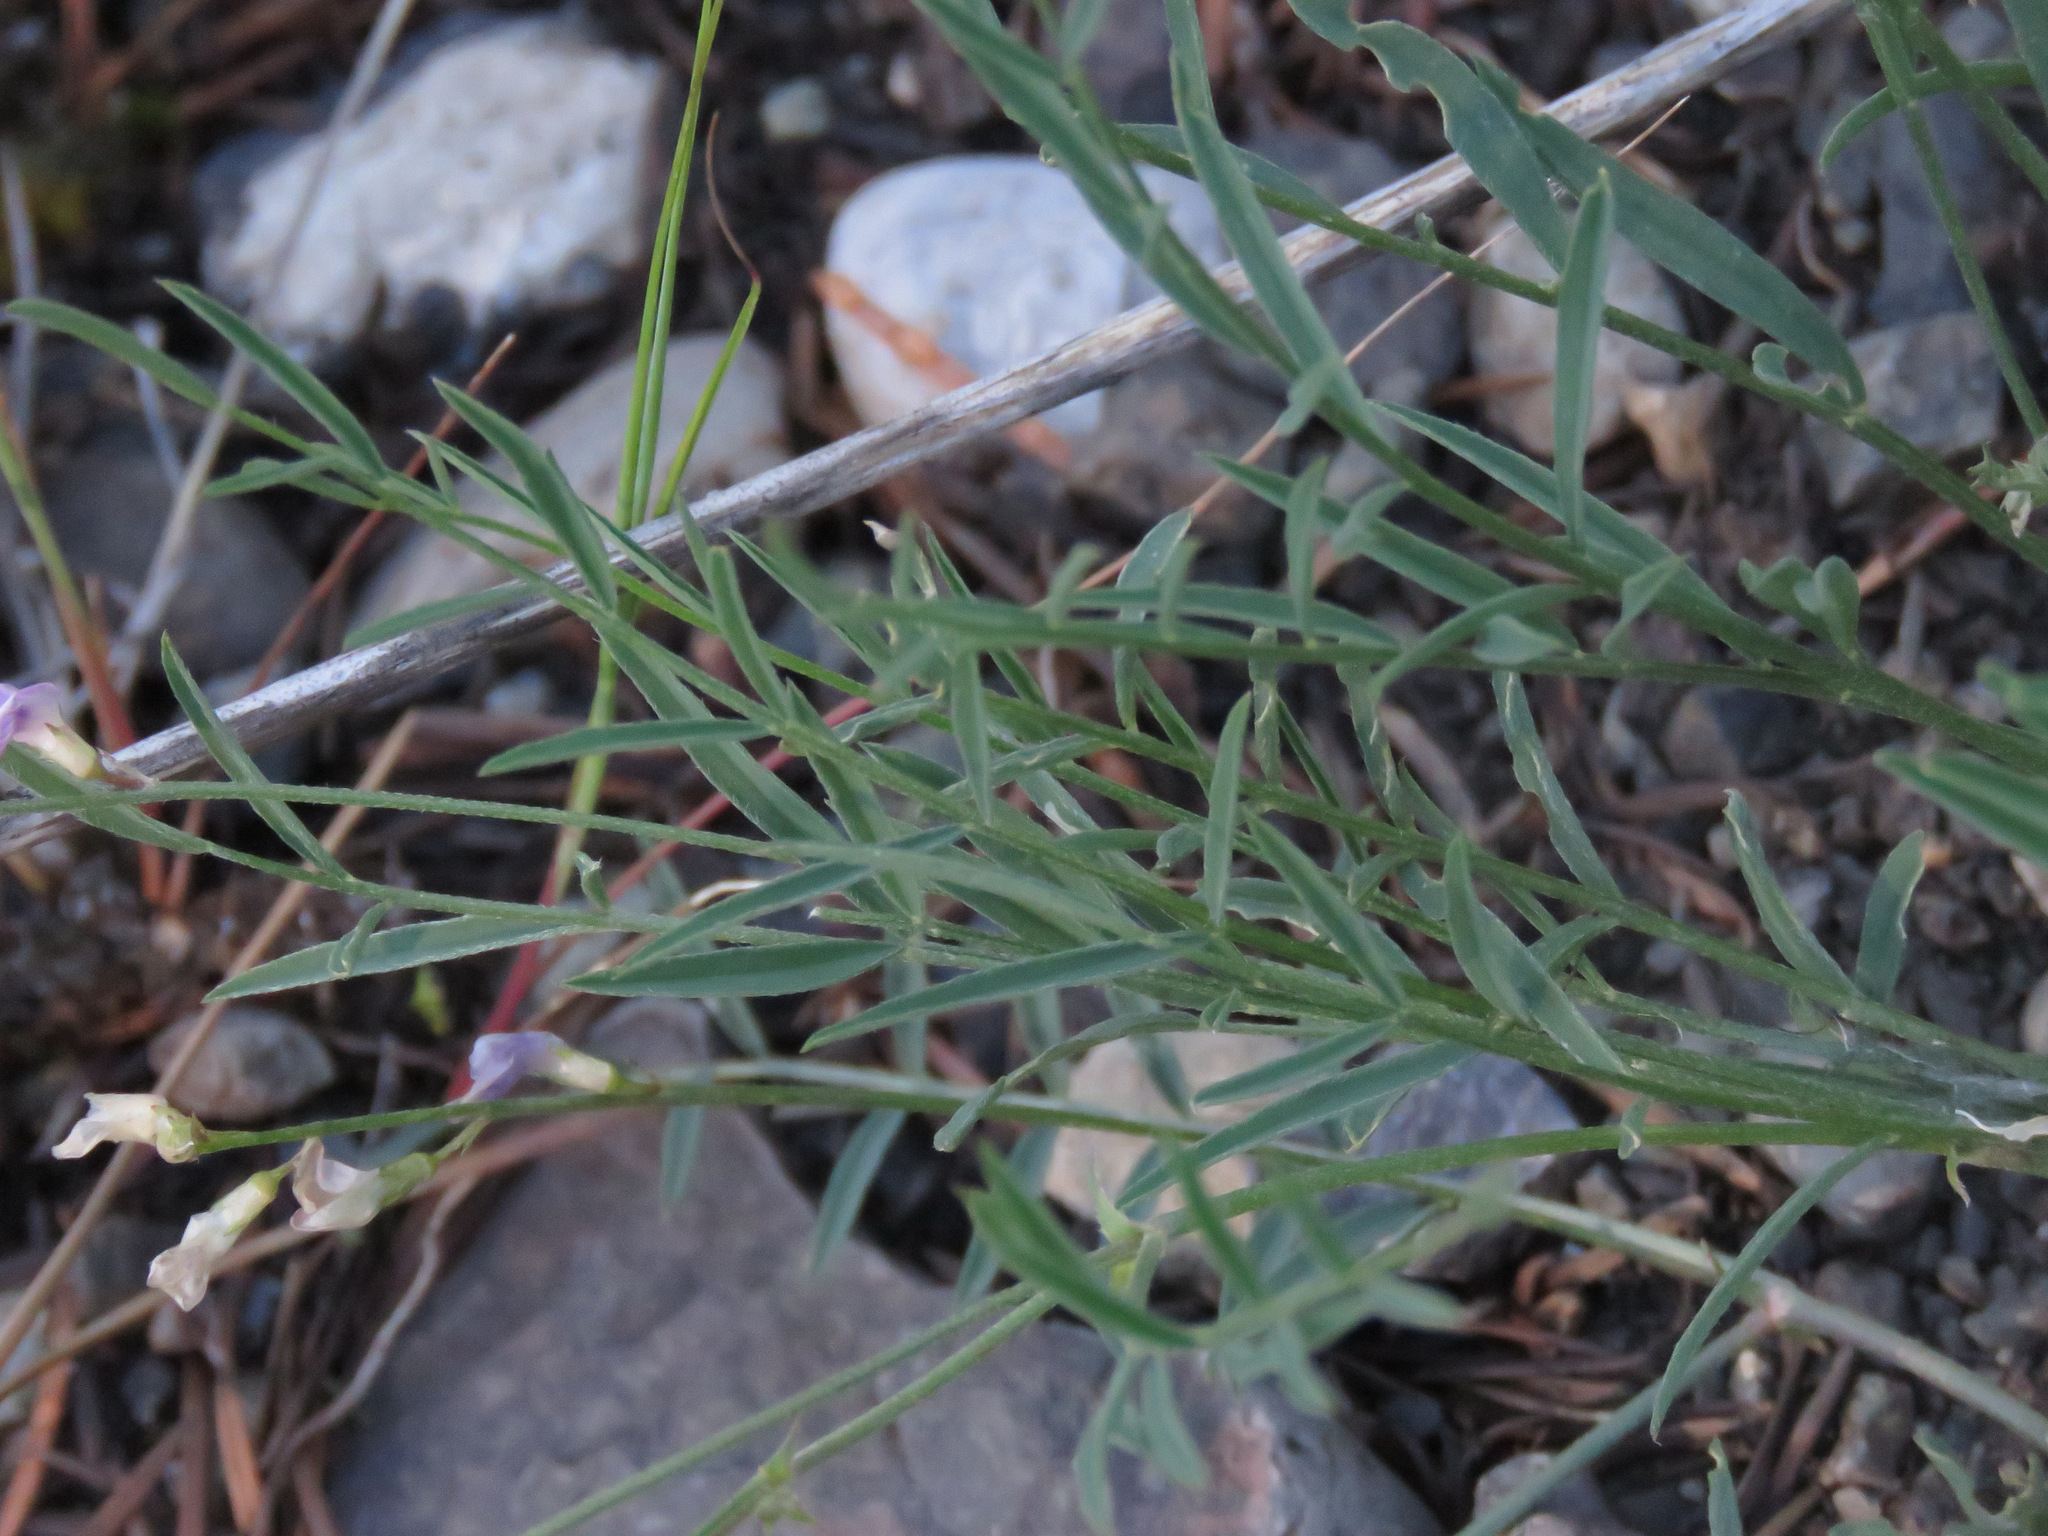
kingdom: Plantae
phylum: Tracheophyta
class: Magnoliopsida
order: Fabales
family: Fabaceae
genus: Astragalus
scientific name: Astragalus miser
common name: Timber milkvetch
